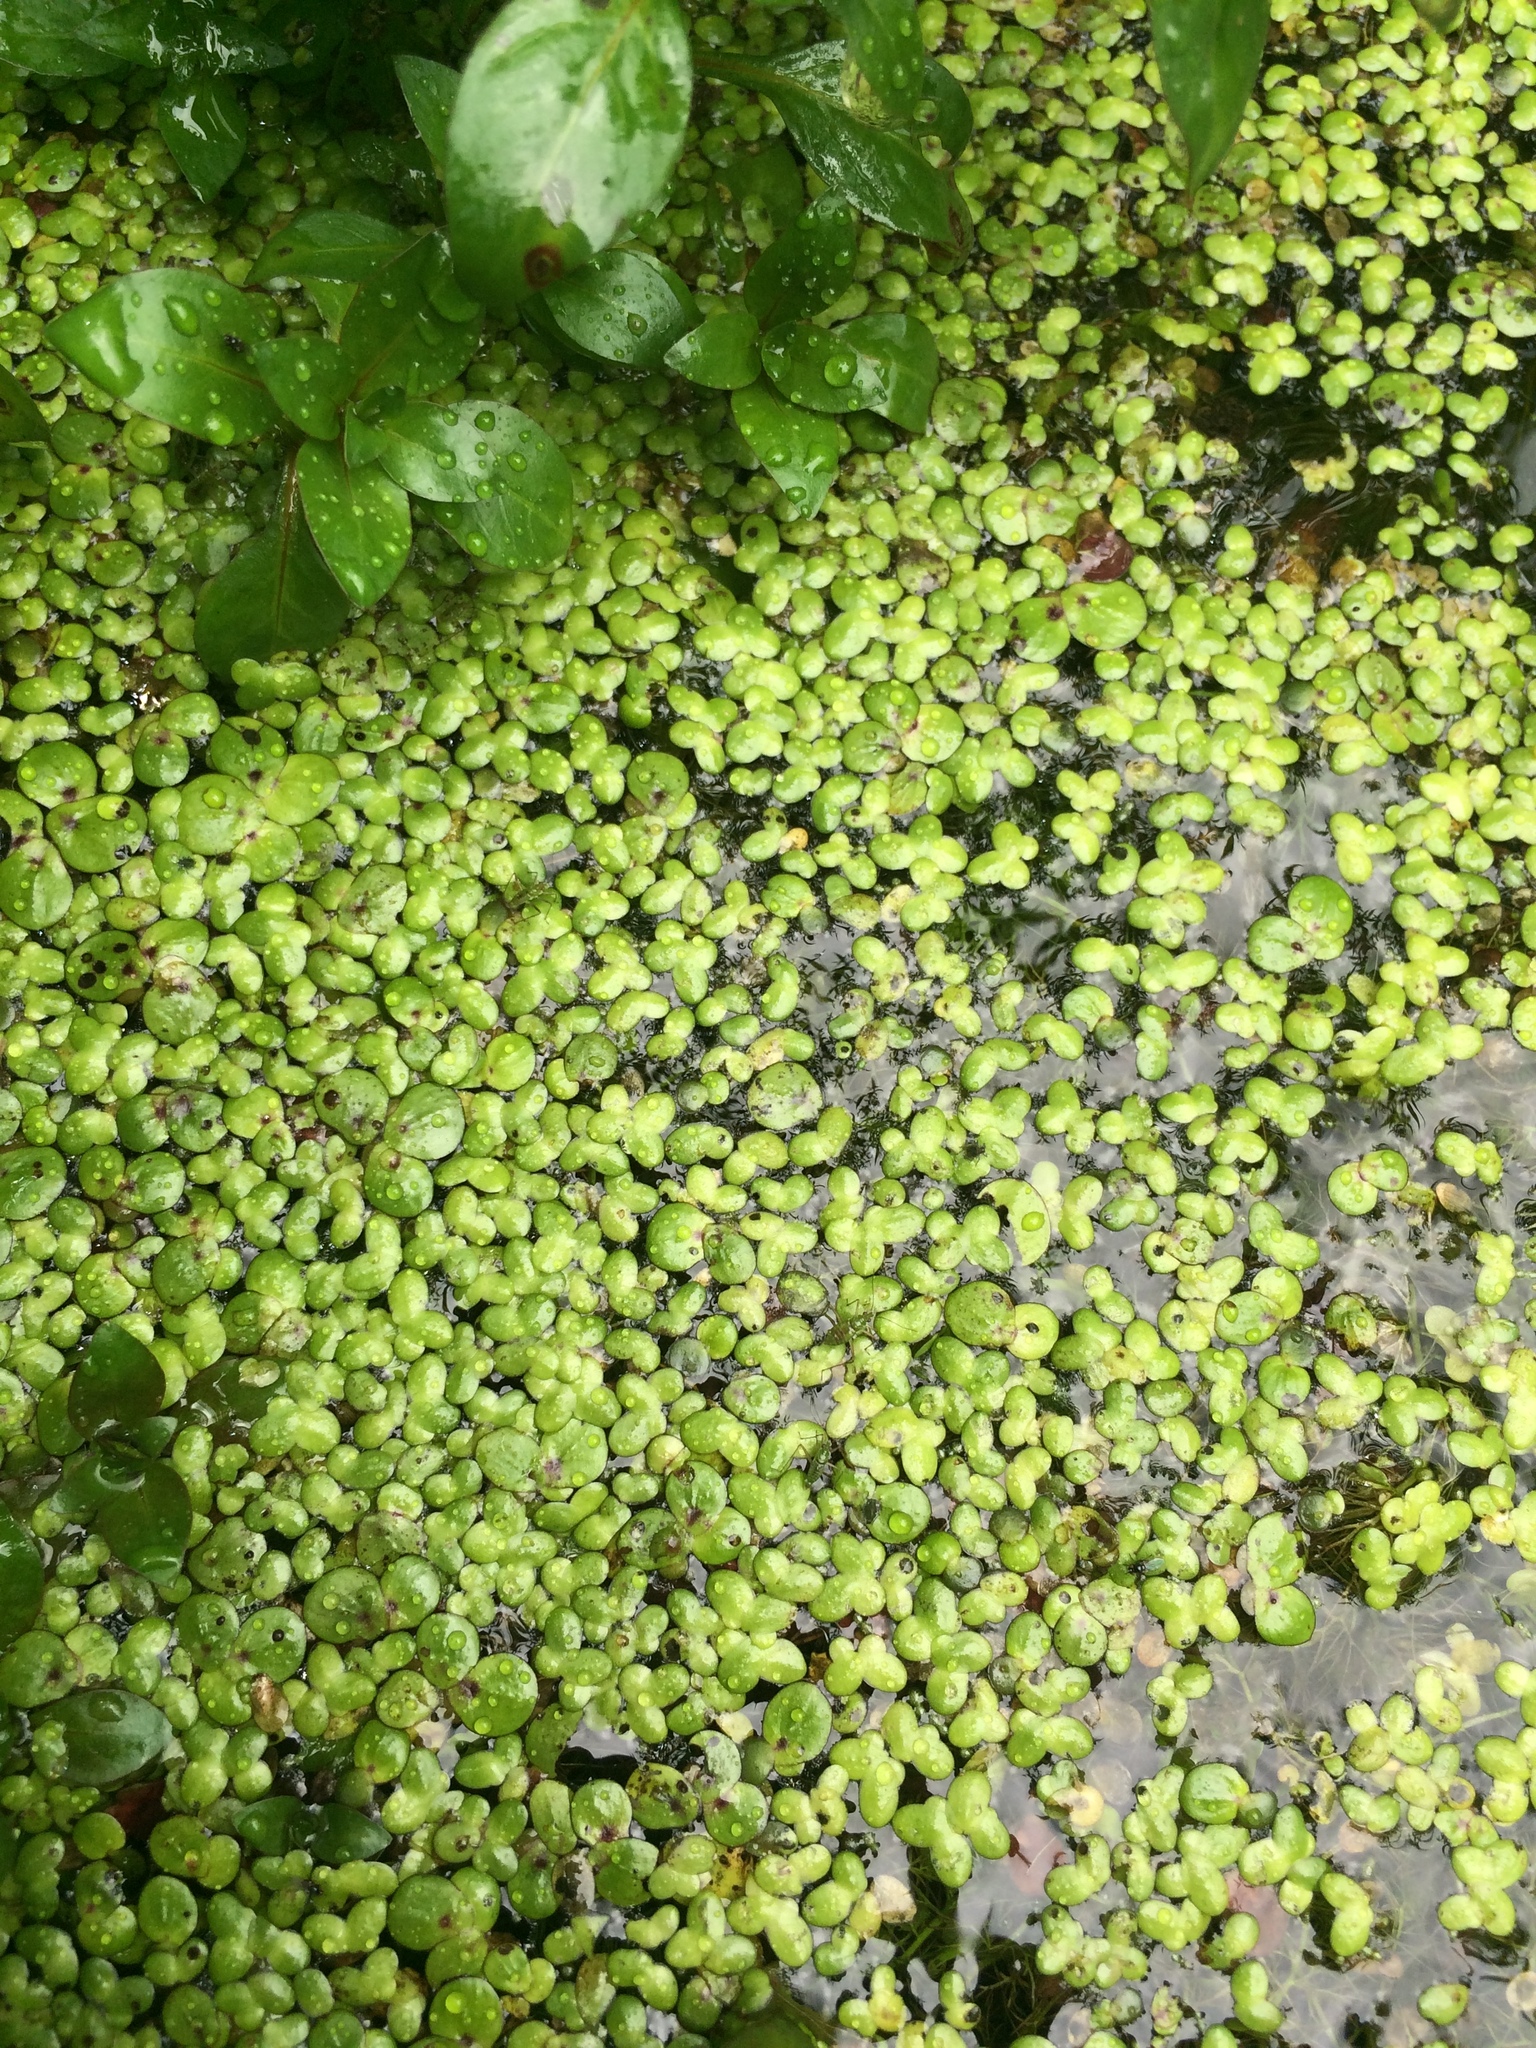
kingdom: Plantae
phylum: Tracheophyta
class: Liliopsida
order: Alismatales
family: Araceae
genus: Spirodela
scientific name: Spirodela polyrhiza
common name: Great duckweed
